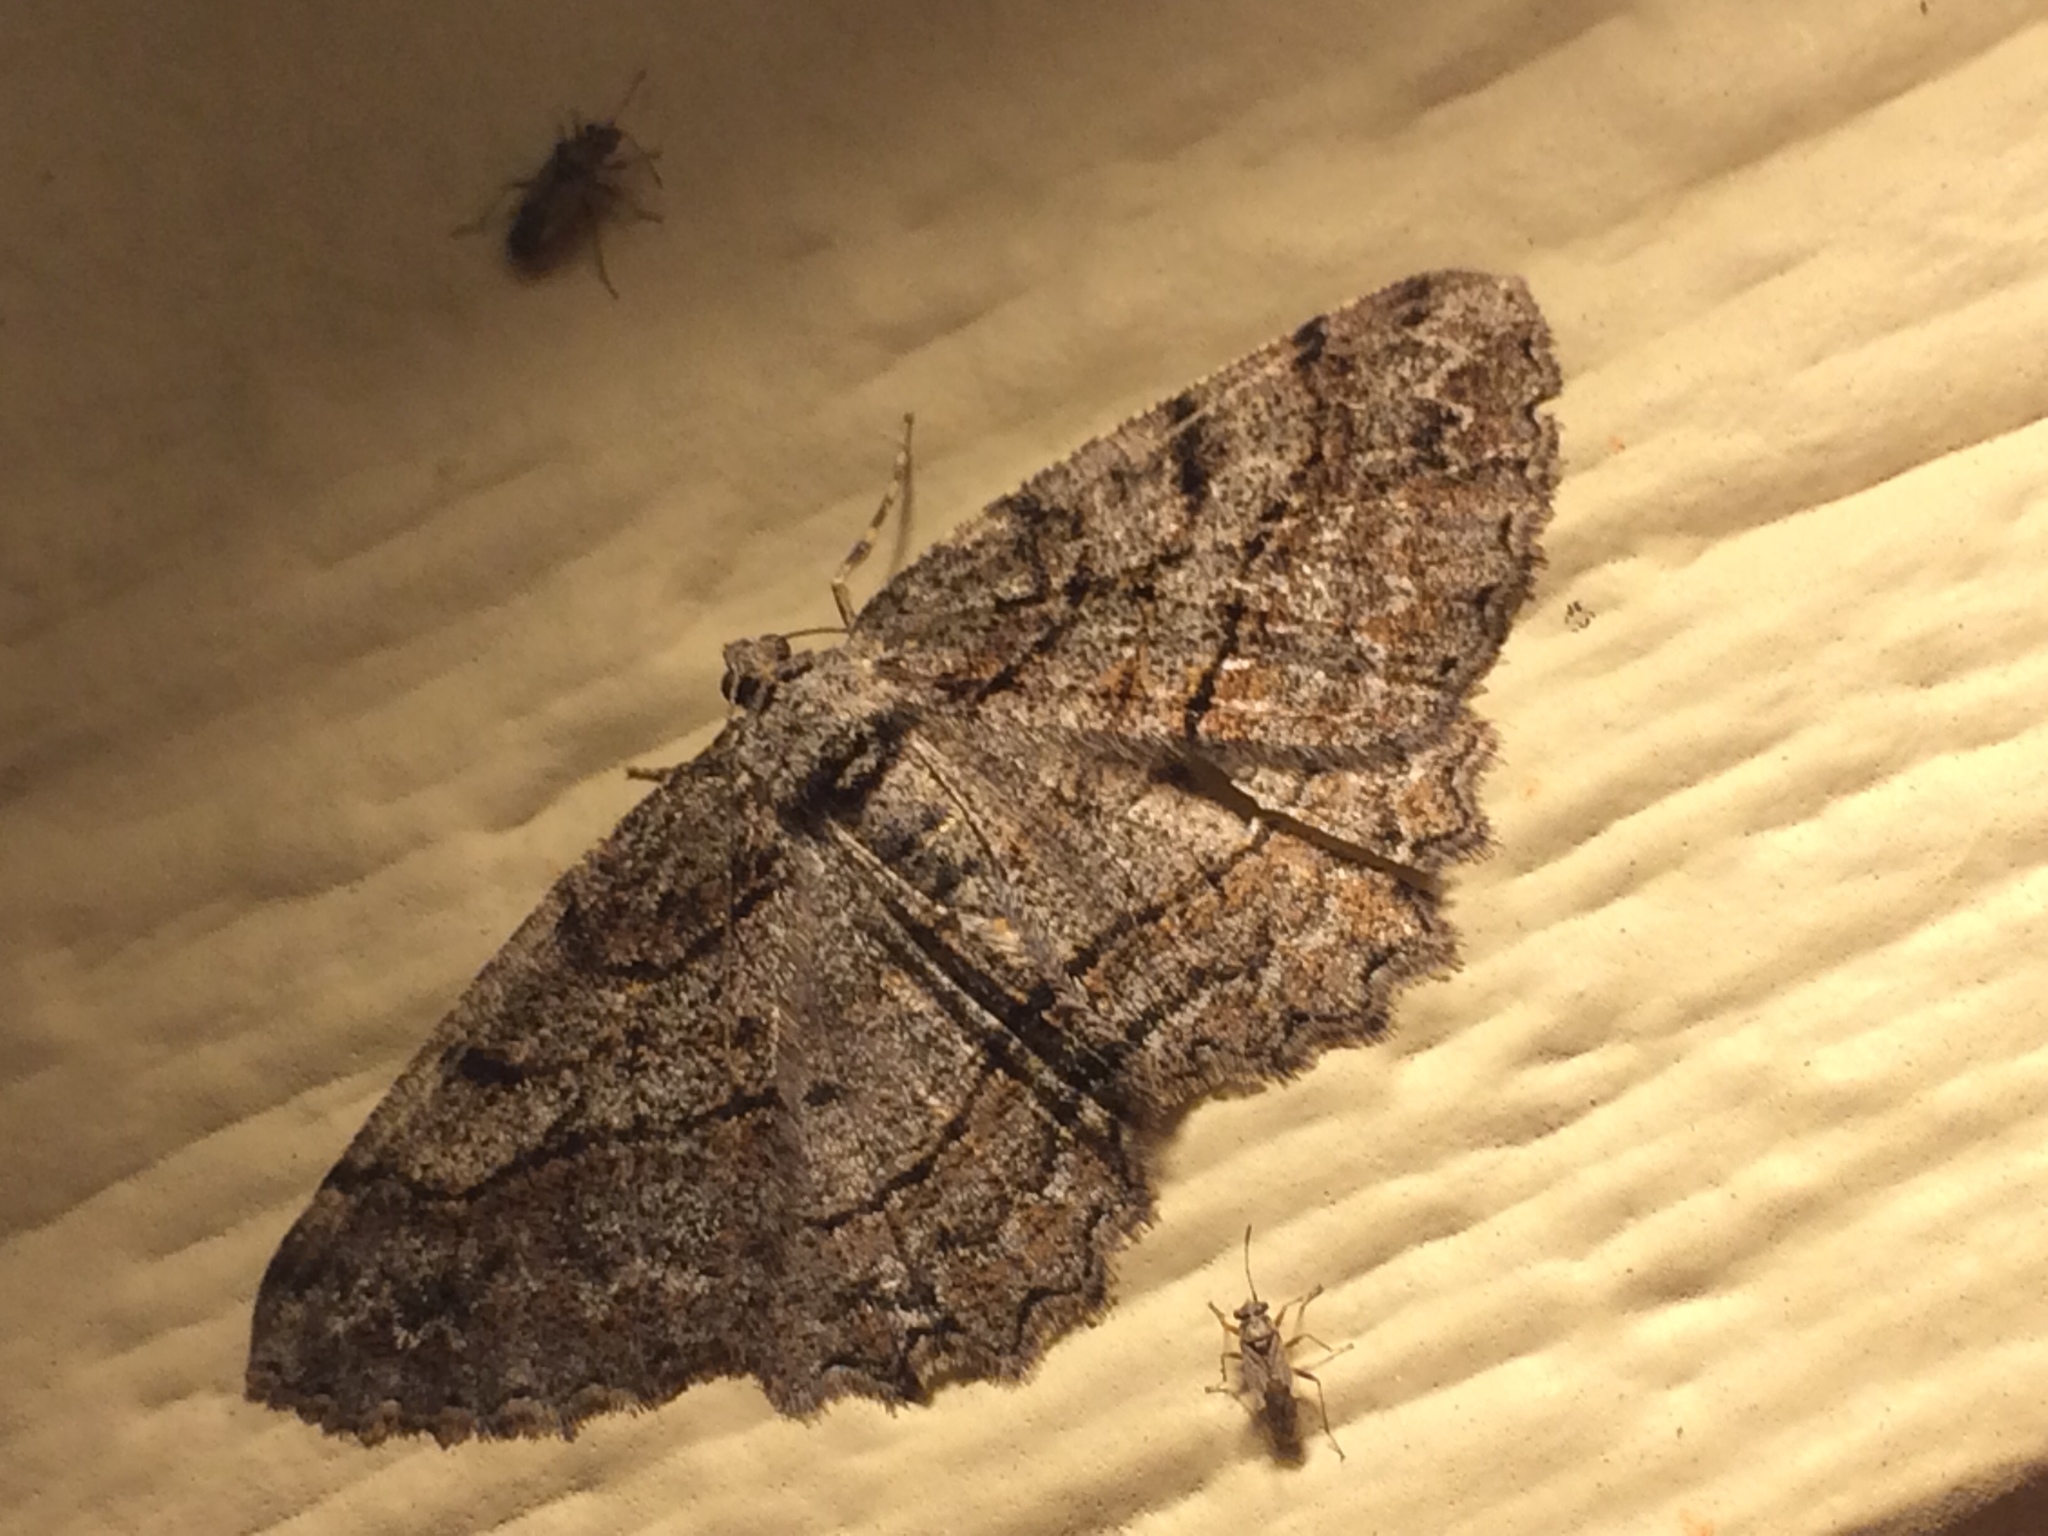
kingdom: Animalia
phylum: Arthropoda
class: Insecta
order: Lepidoptera
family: Geometridae
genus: Neoalcis
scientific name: Neoalcis californiaria
